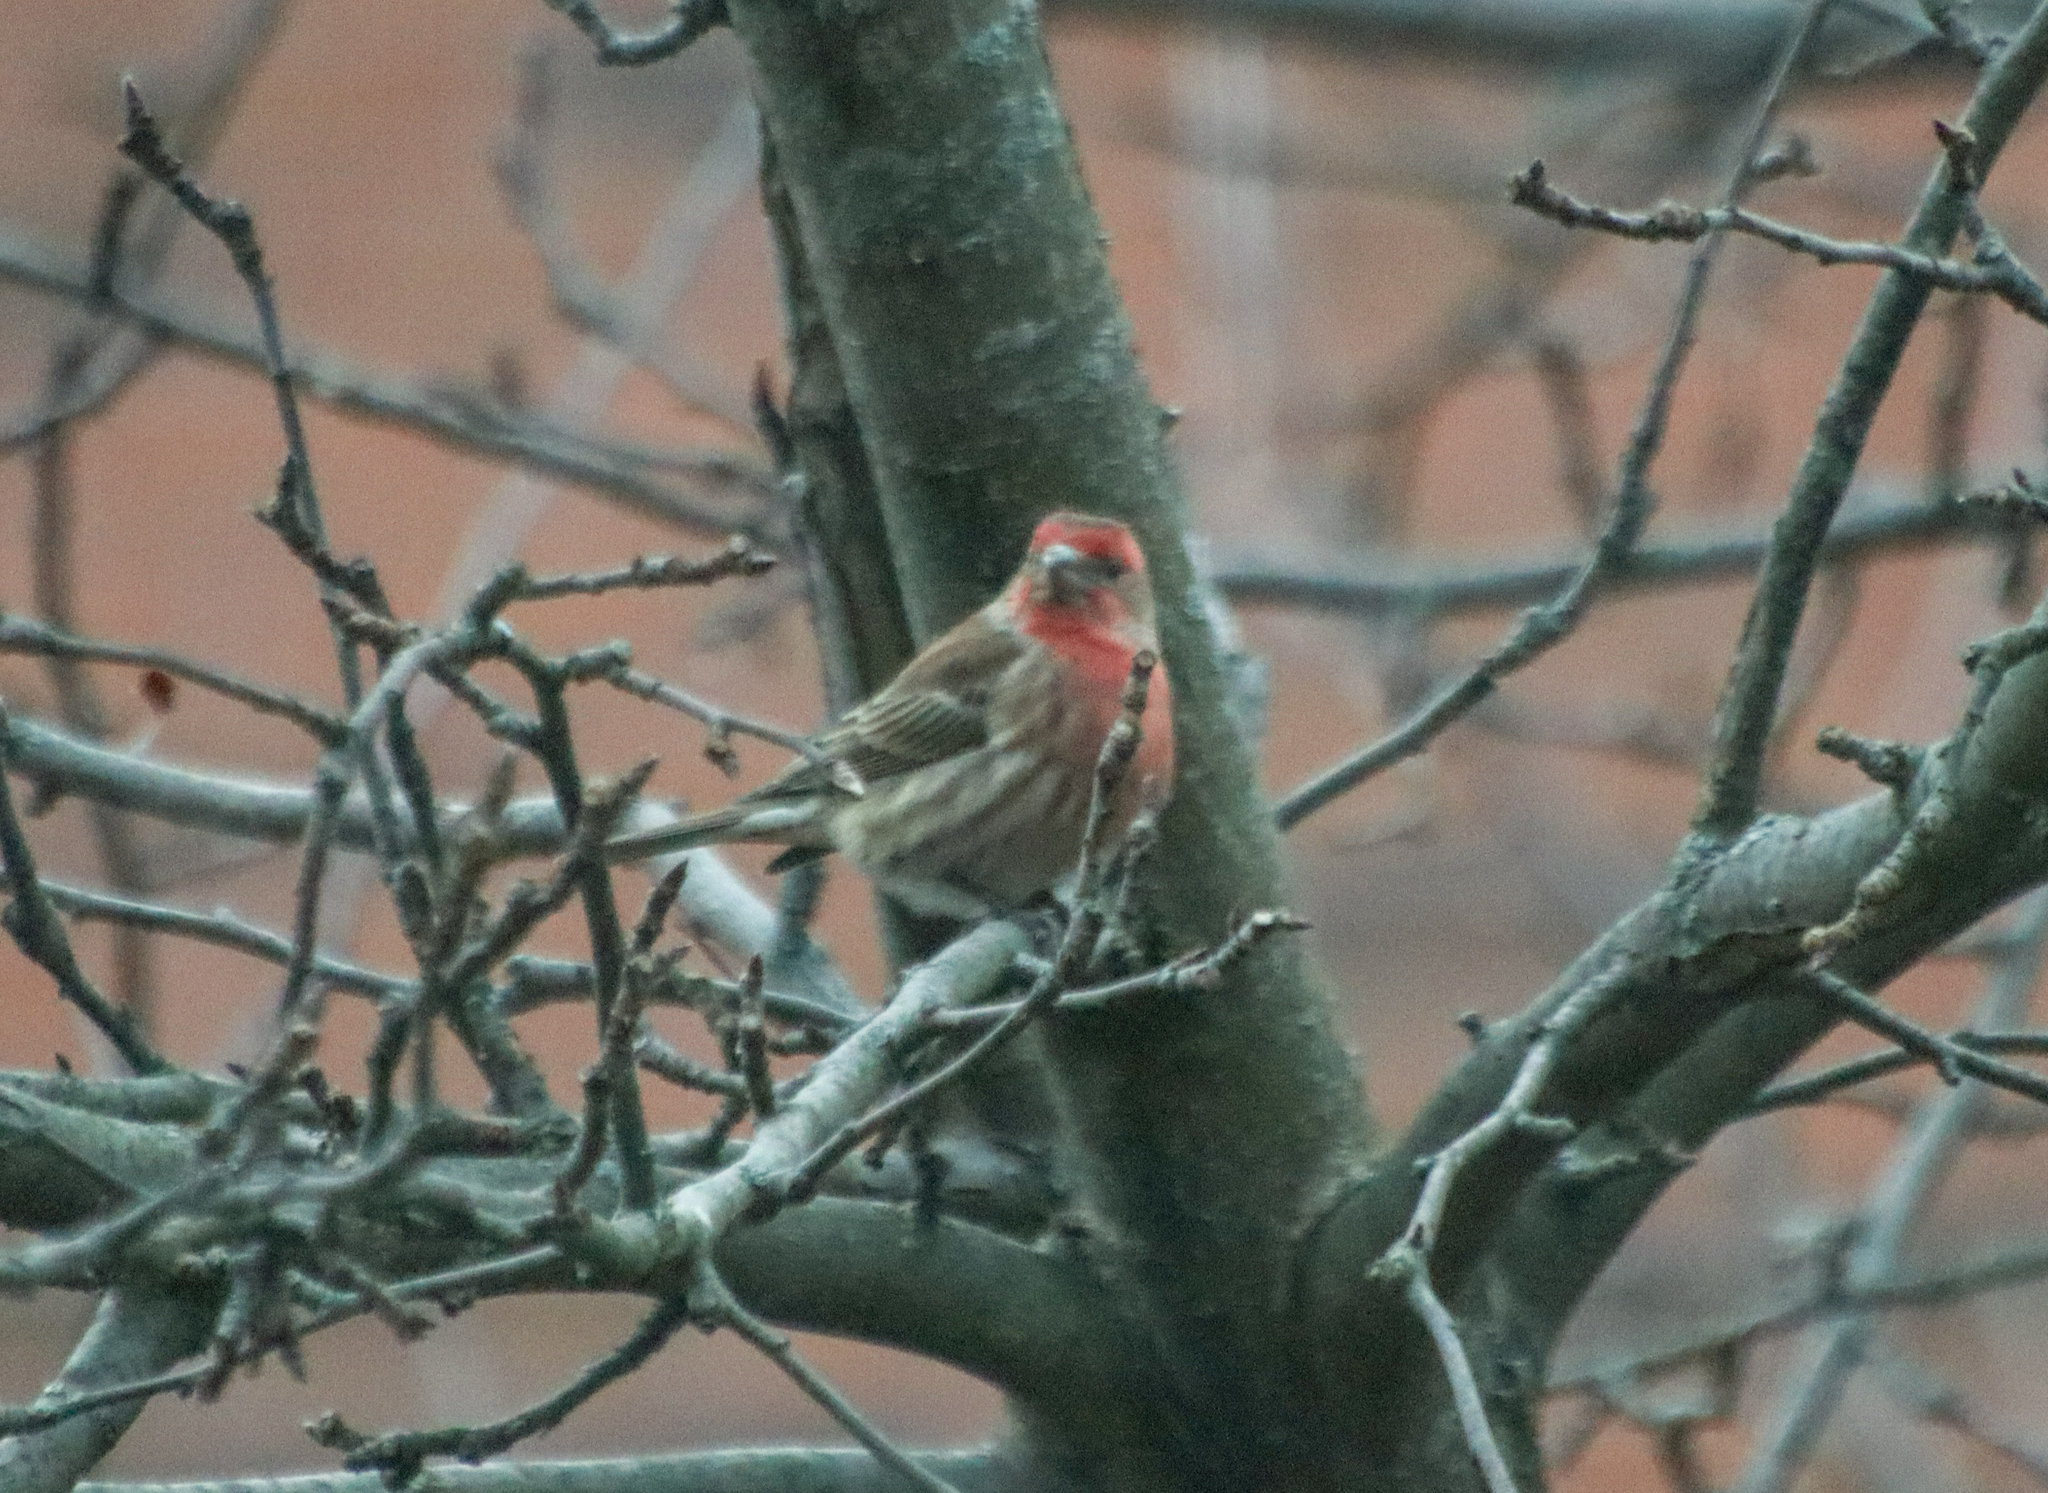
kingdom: Animalia
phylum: Chordata
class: Aves
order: Passeriformes
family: Fringillidae
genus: Haemorhous
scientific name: Haemorhous mexicanus
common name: House finch
